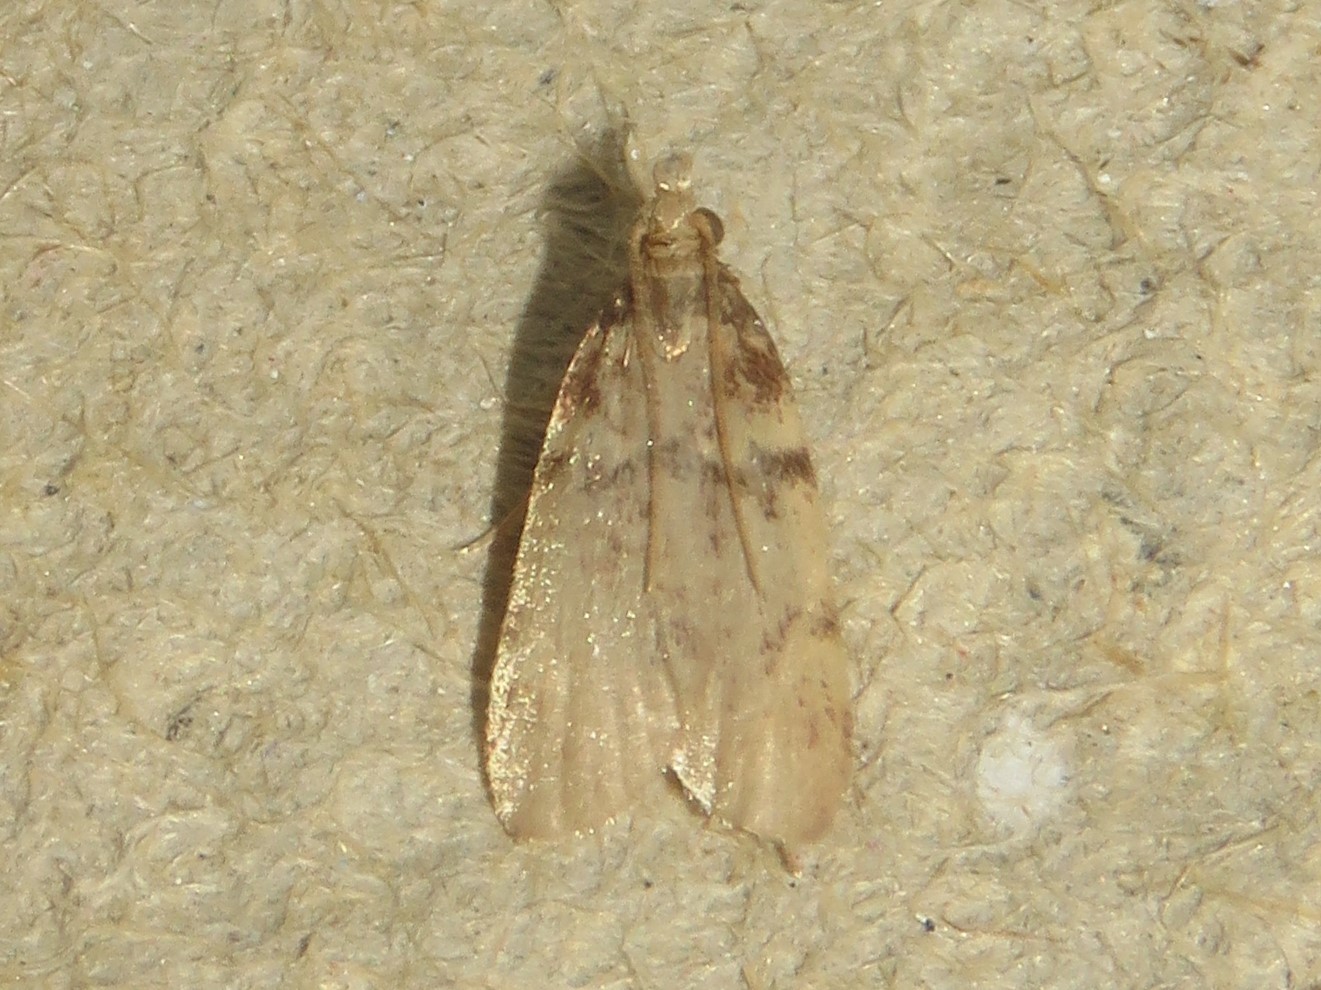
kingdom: Animalia
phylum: Arthropoda
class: Insecta
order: Lepidoptera
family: Pyralidae
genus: Acallis
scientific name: Acallis alticolalis
